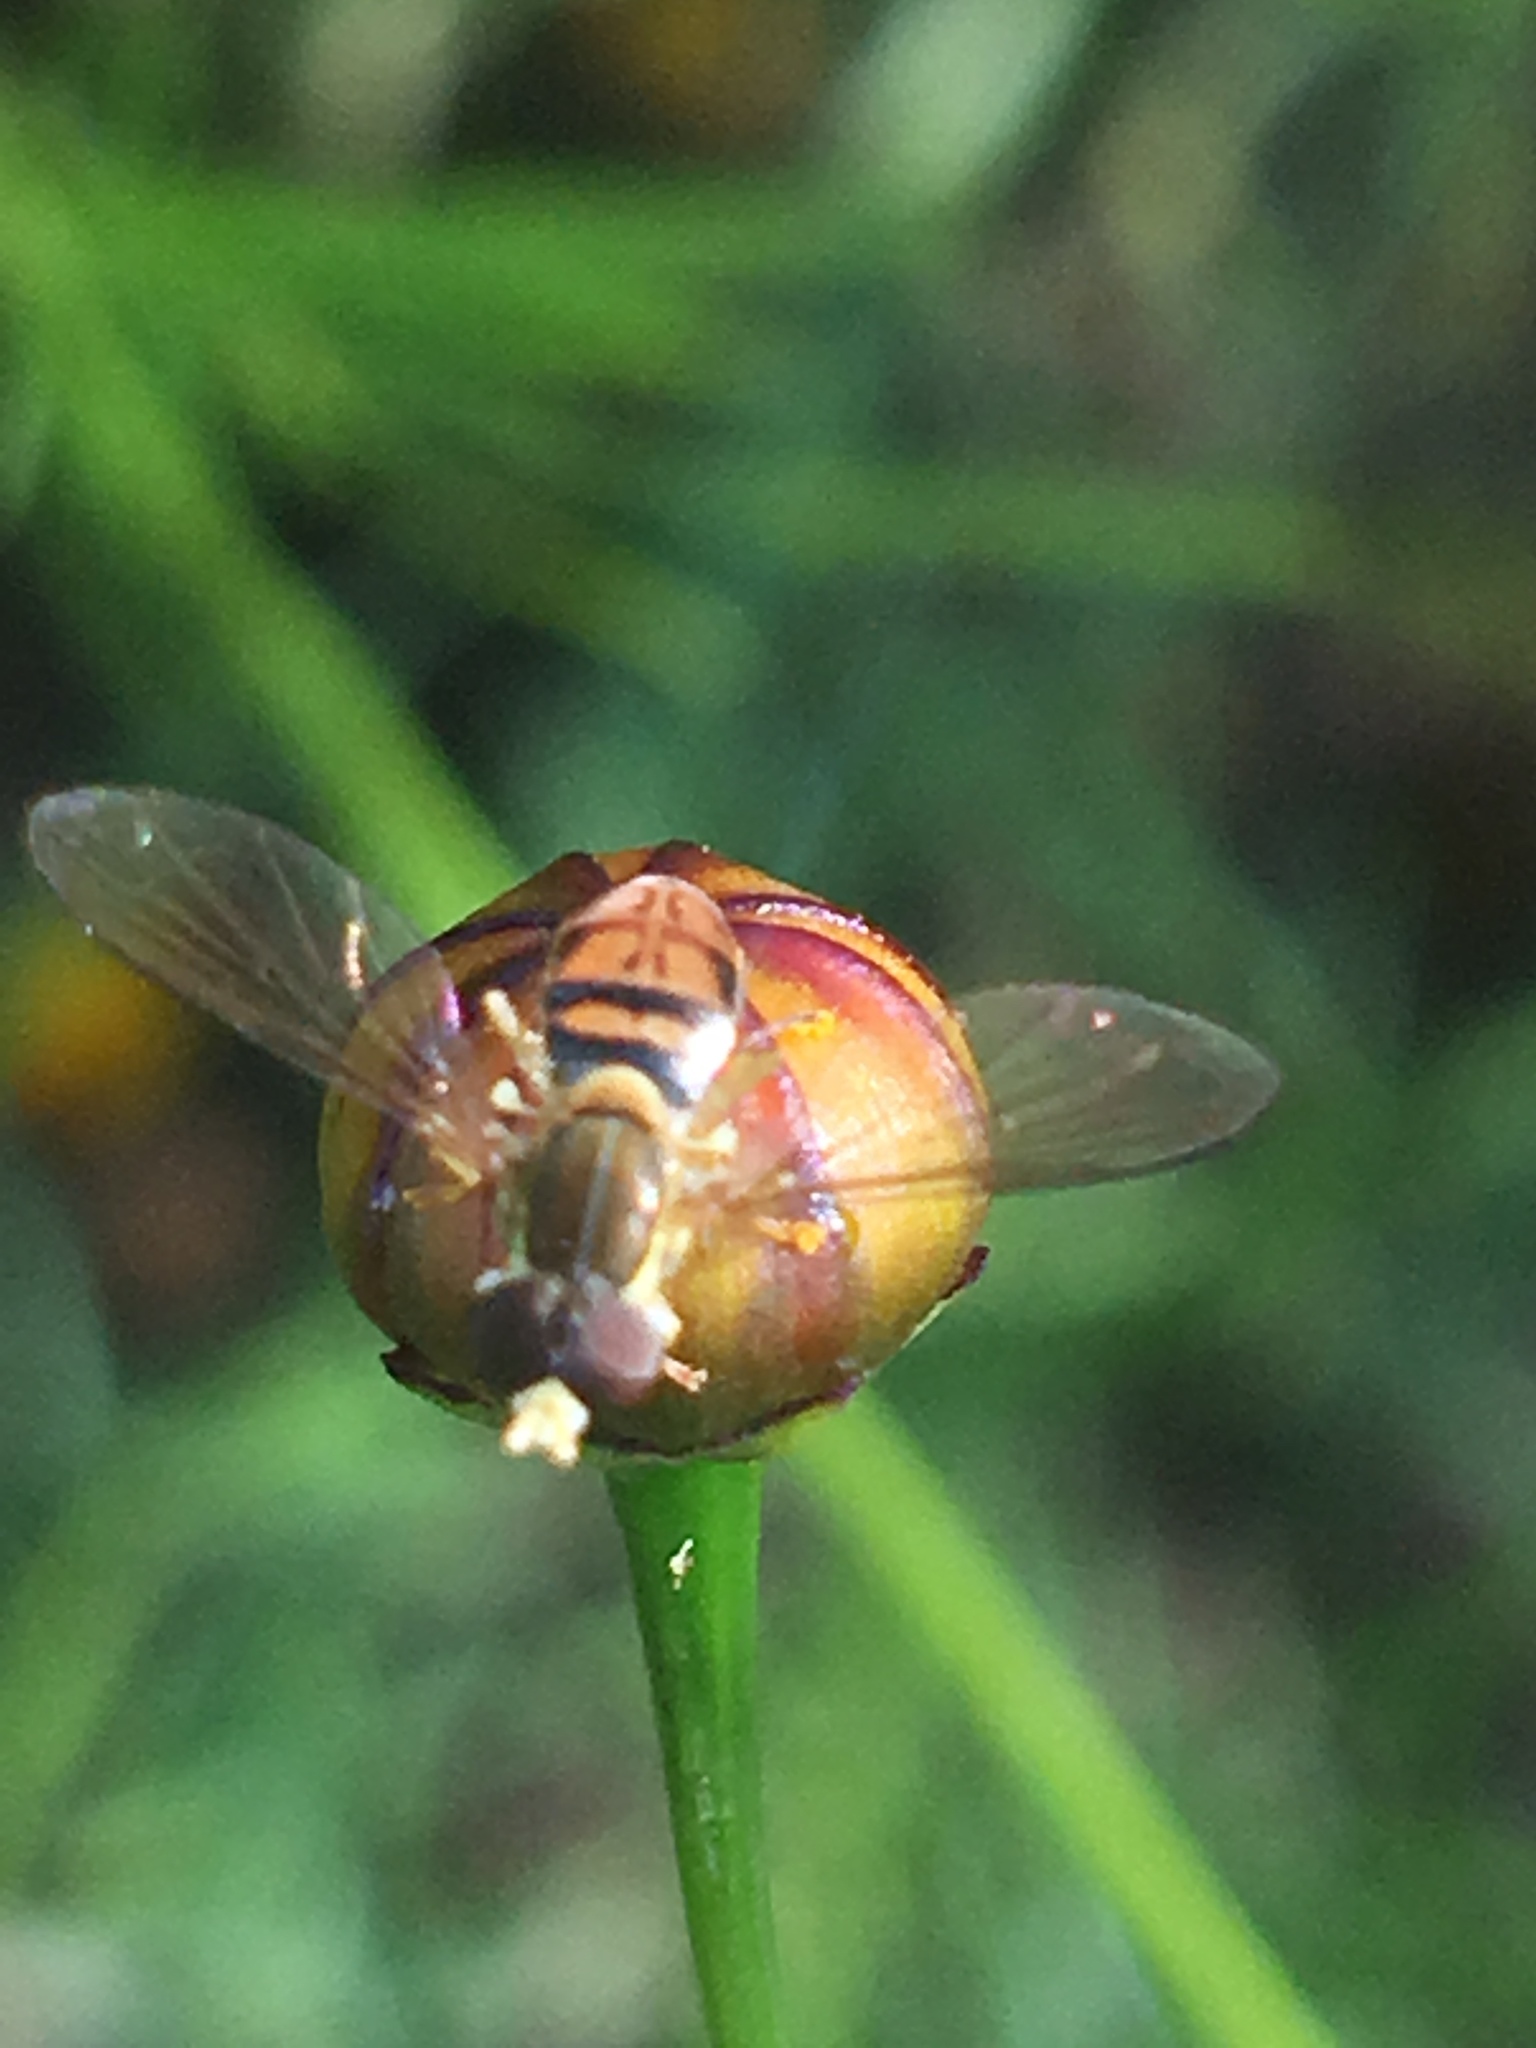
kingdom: Animalia
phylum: Arthropoda
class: Insecta
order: Diptera
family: Syrphidae
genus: Toxomerus
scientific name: Toxomerus marginatus
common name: Syrphid fly
